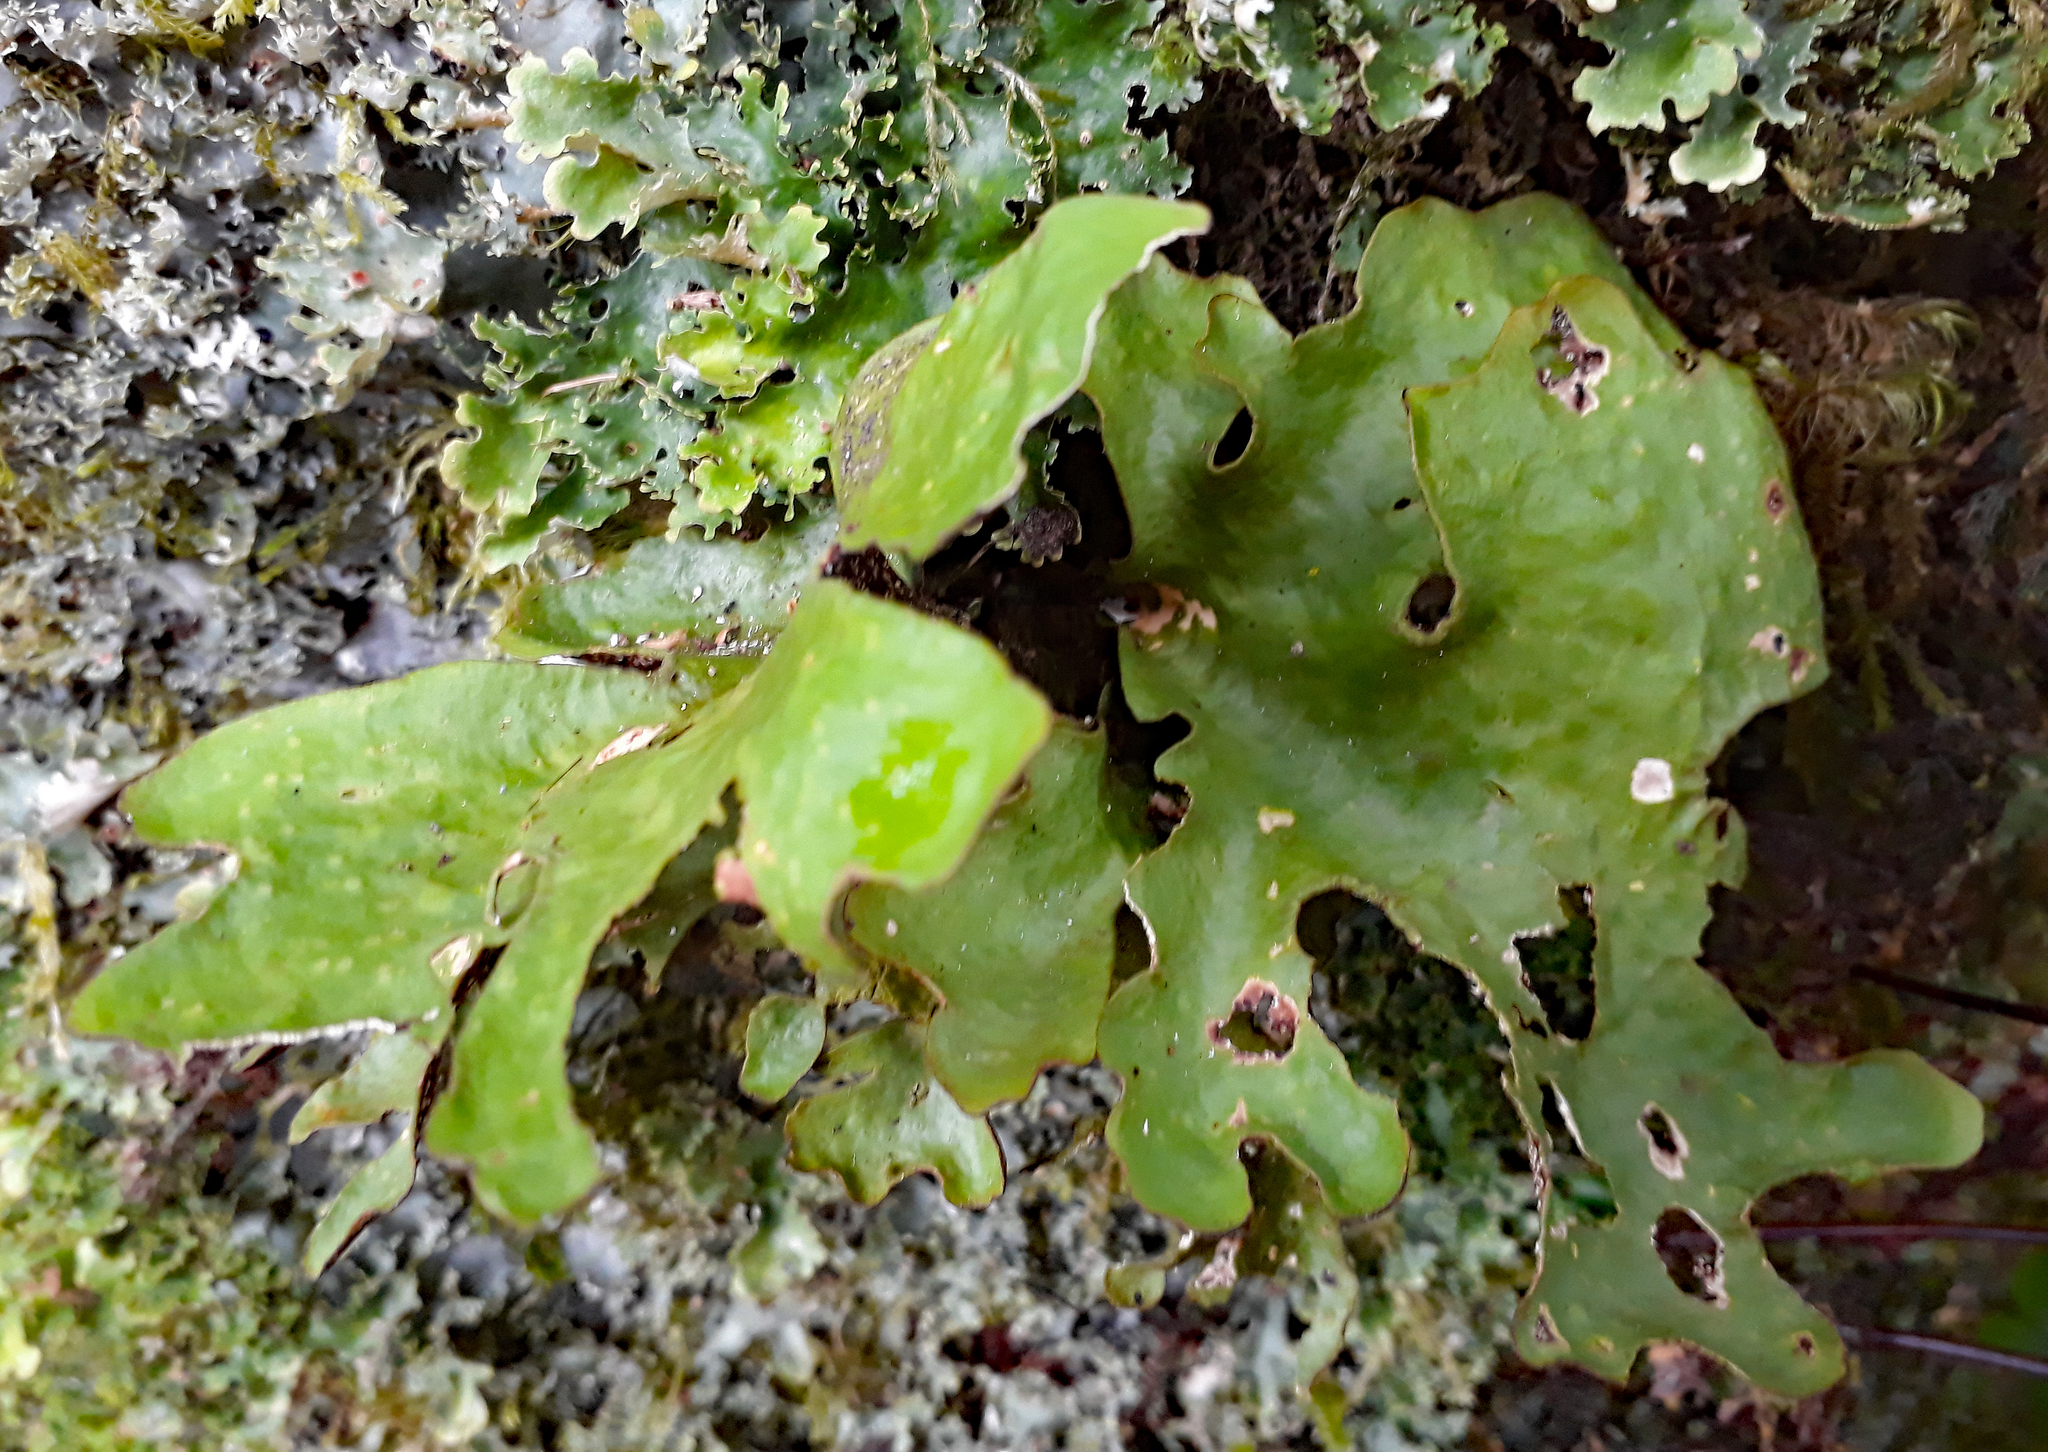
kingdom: Fungi
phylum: Ascomycota
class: Lecanoromycetes
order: Peltigerales
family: Lobariaceae
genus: Sticta
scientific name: Sticta
